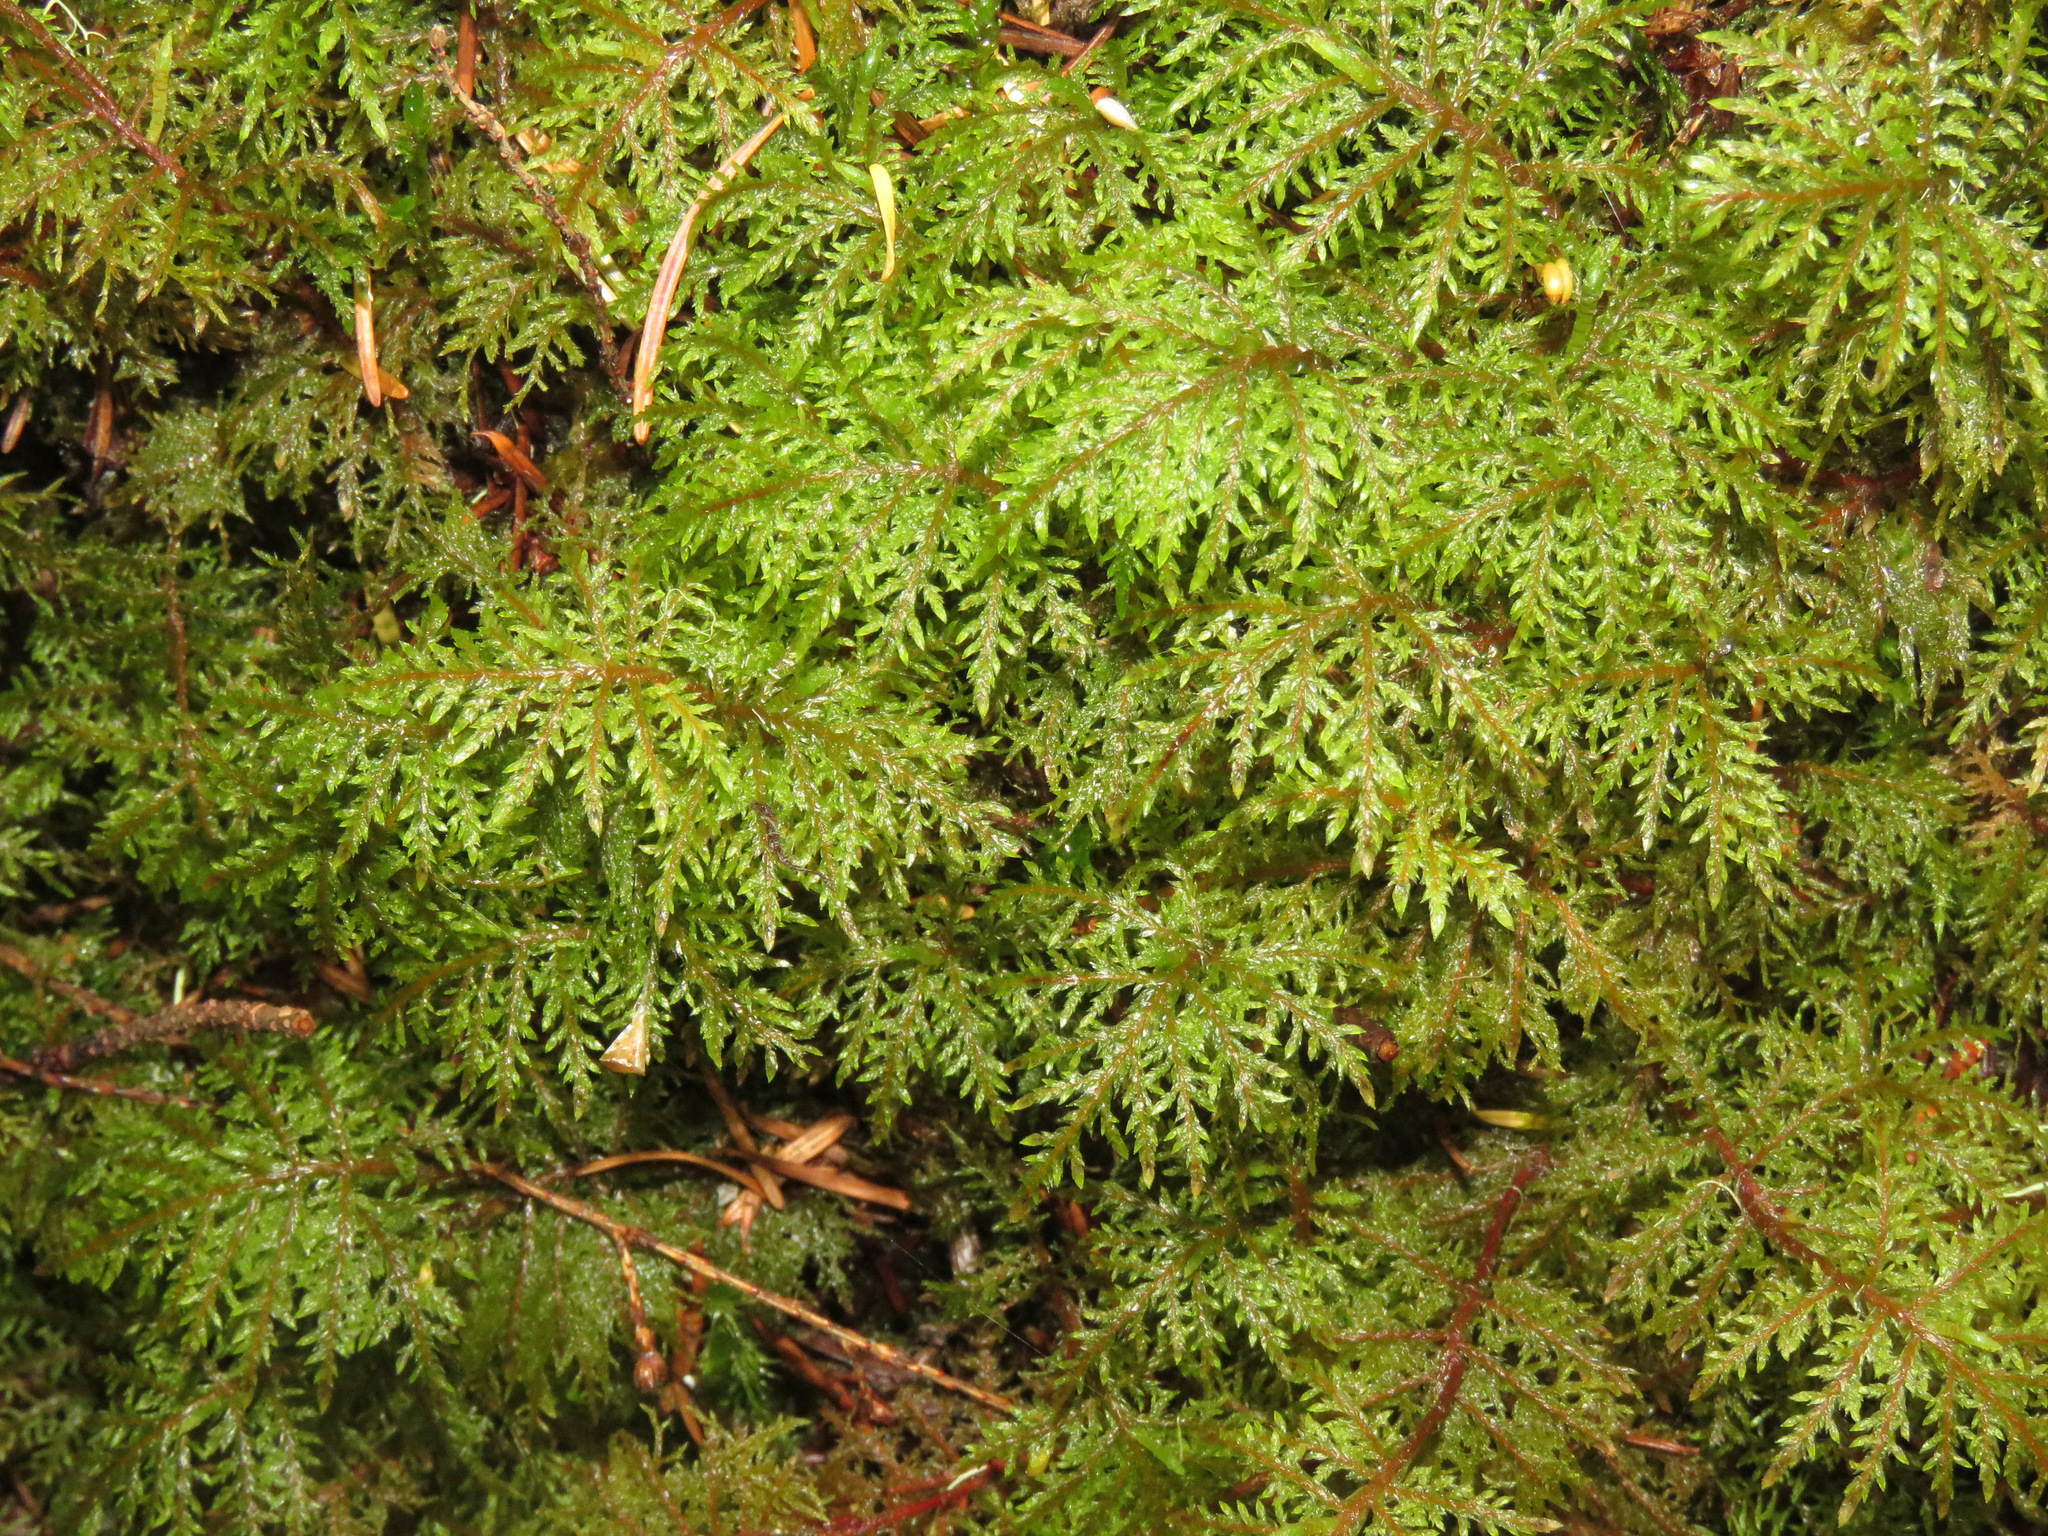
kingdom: Plantae
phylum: Bryophyta
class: Bryopsida
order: Hypnales
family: Hylocomiaceae
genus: Hylocomium
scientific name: Hylocomium splendens
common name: Stairstep moss
